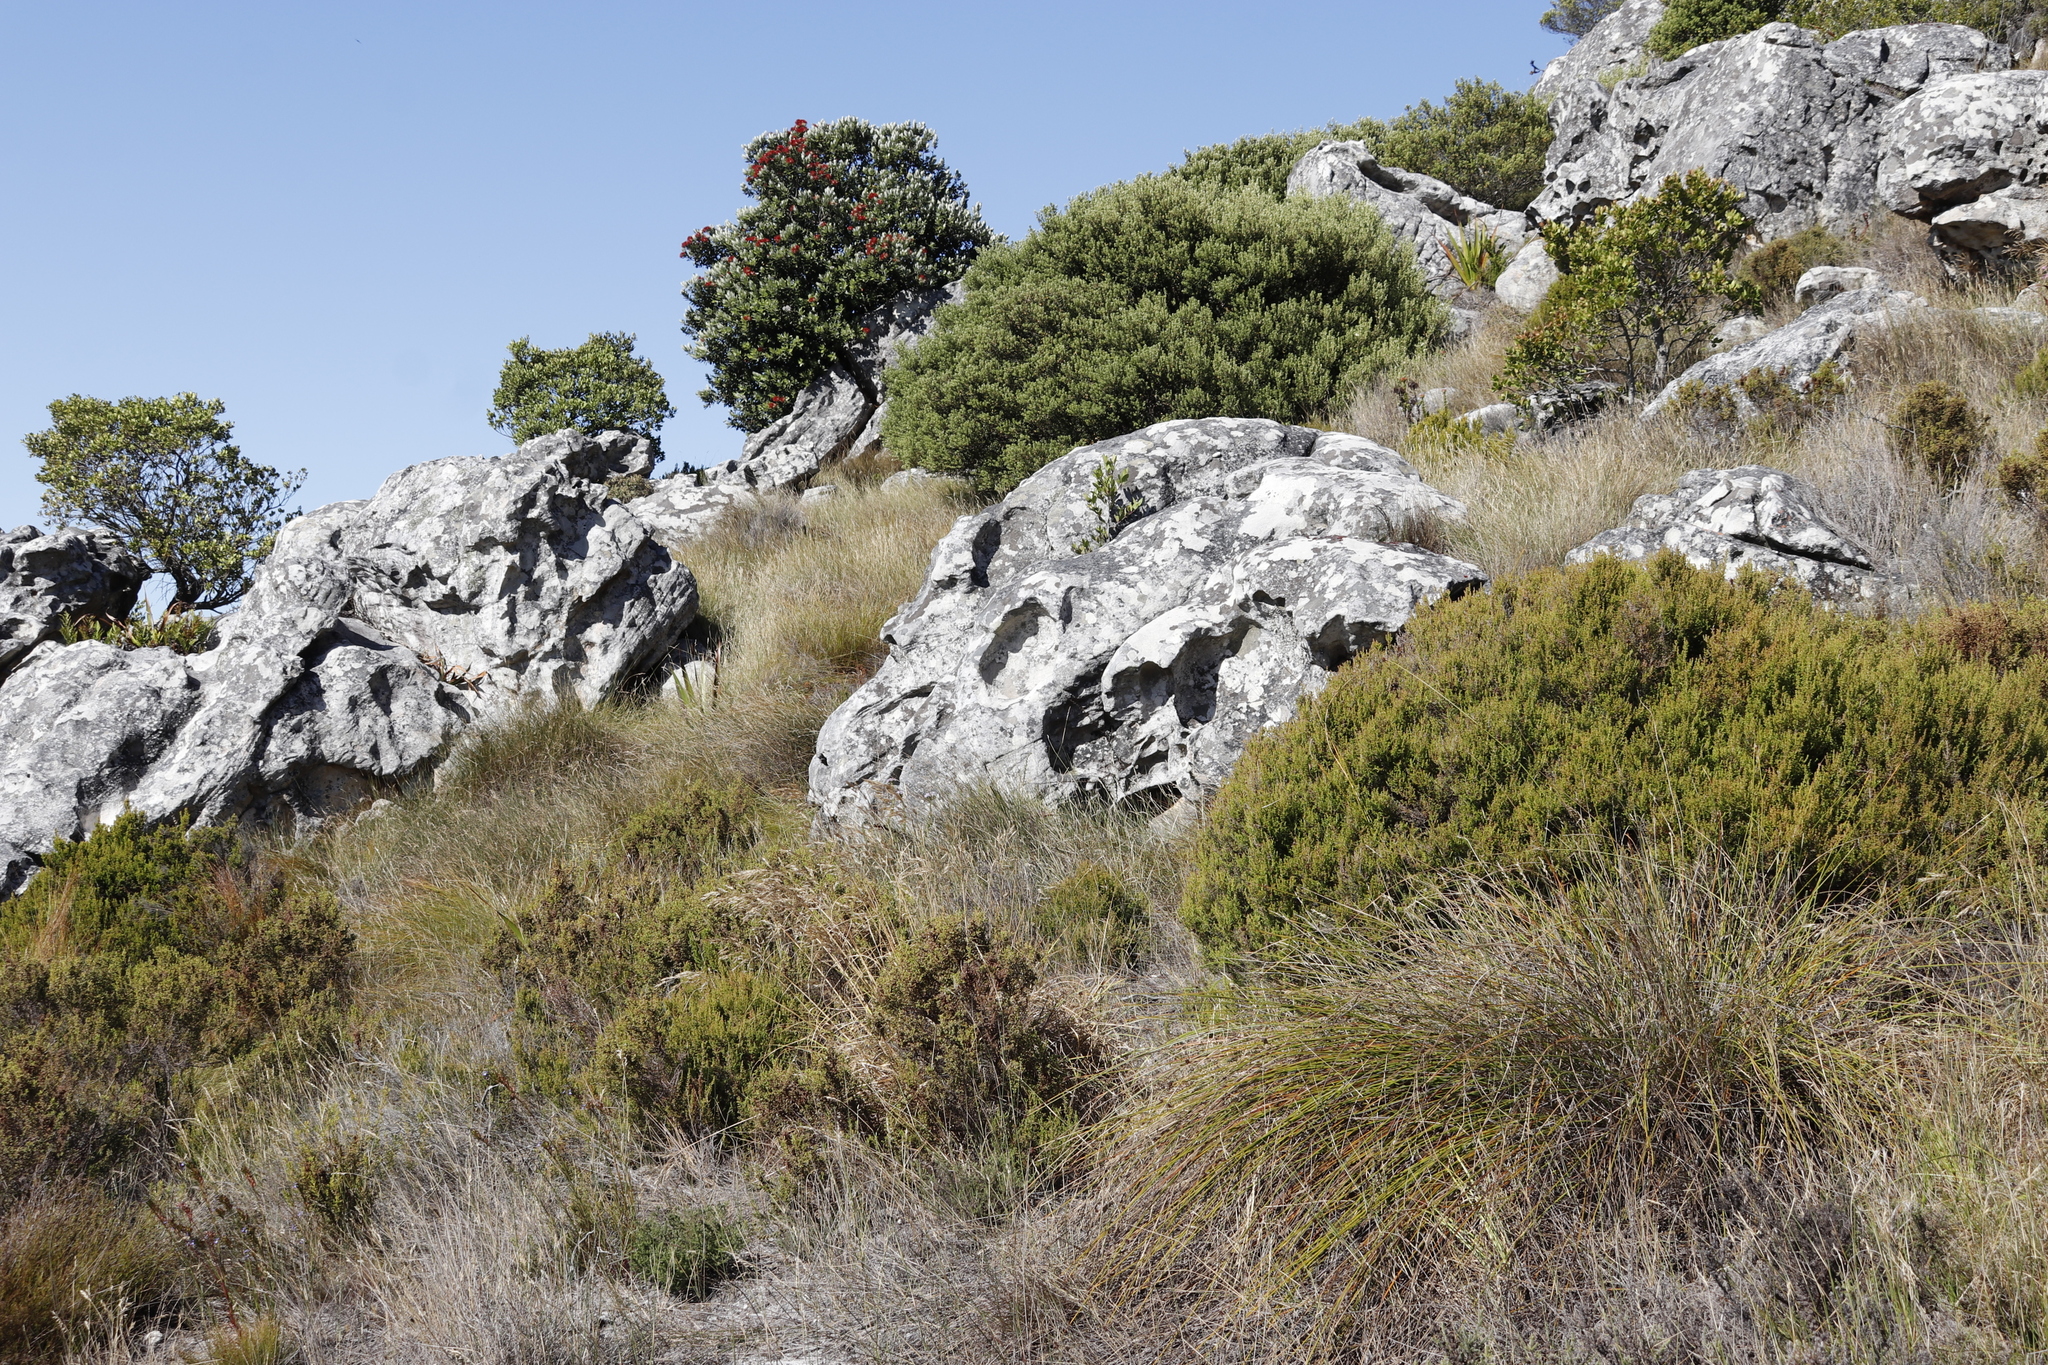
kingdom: Plantae
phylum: Tracheophyta
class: Magnoliopsida
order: Myrtales
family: Myrtaceae
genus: Metrosideros
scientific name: Metrosideros excelsa
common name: New zealand christmastree
